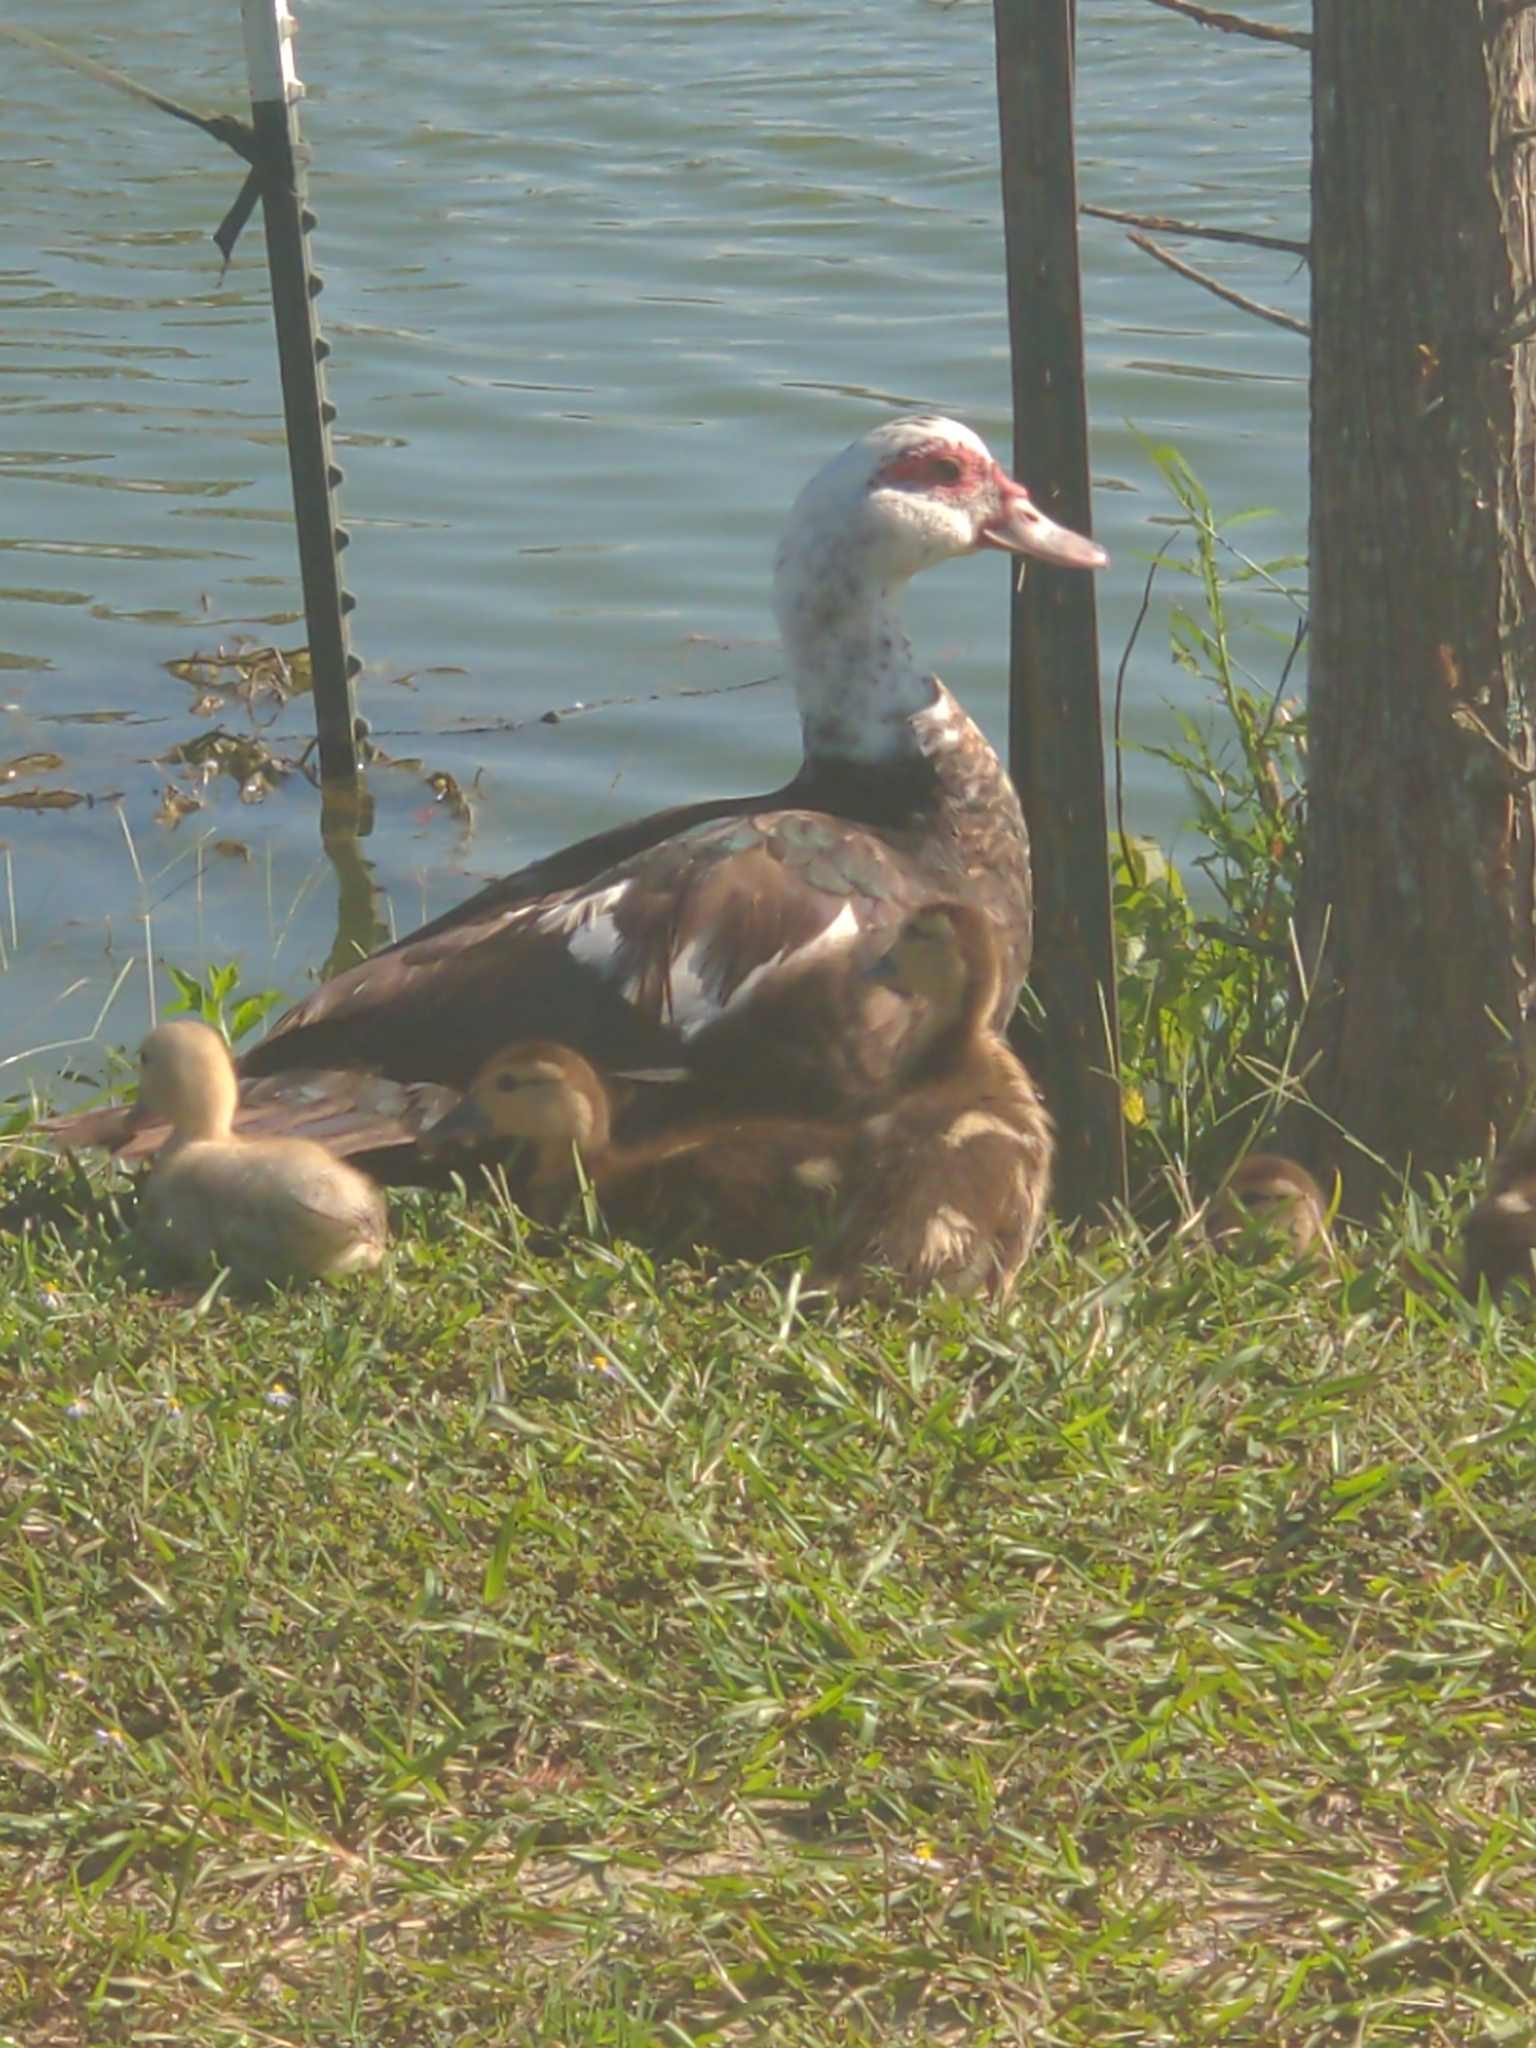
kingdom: Animalia
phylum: Chordata
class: Aves
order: Anseriformes
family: Anatidae
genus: Cairina
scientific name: Cairina moschata
